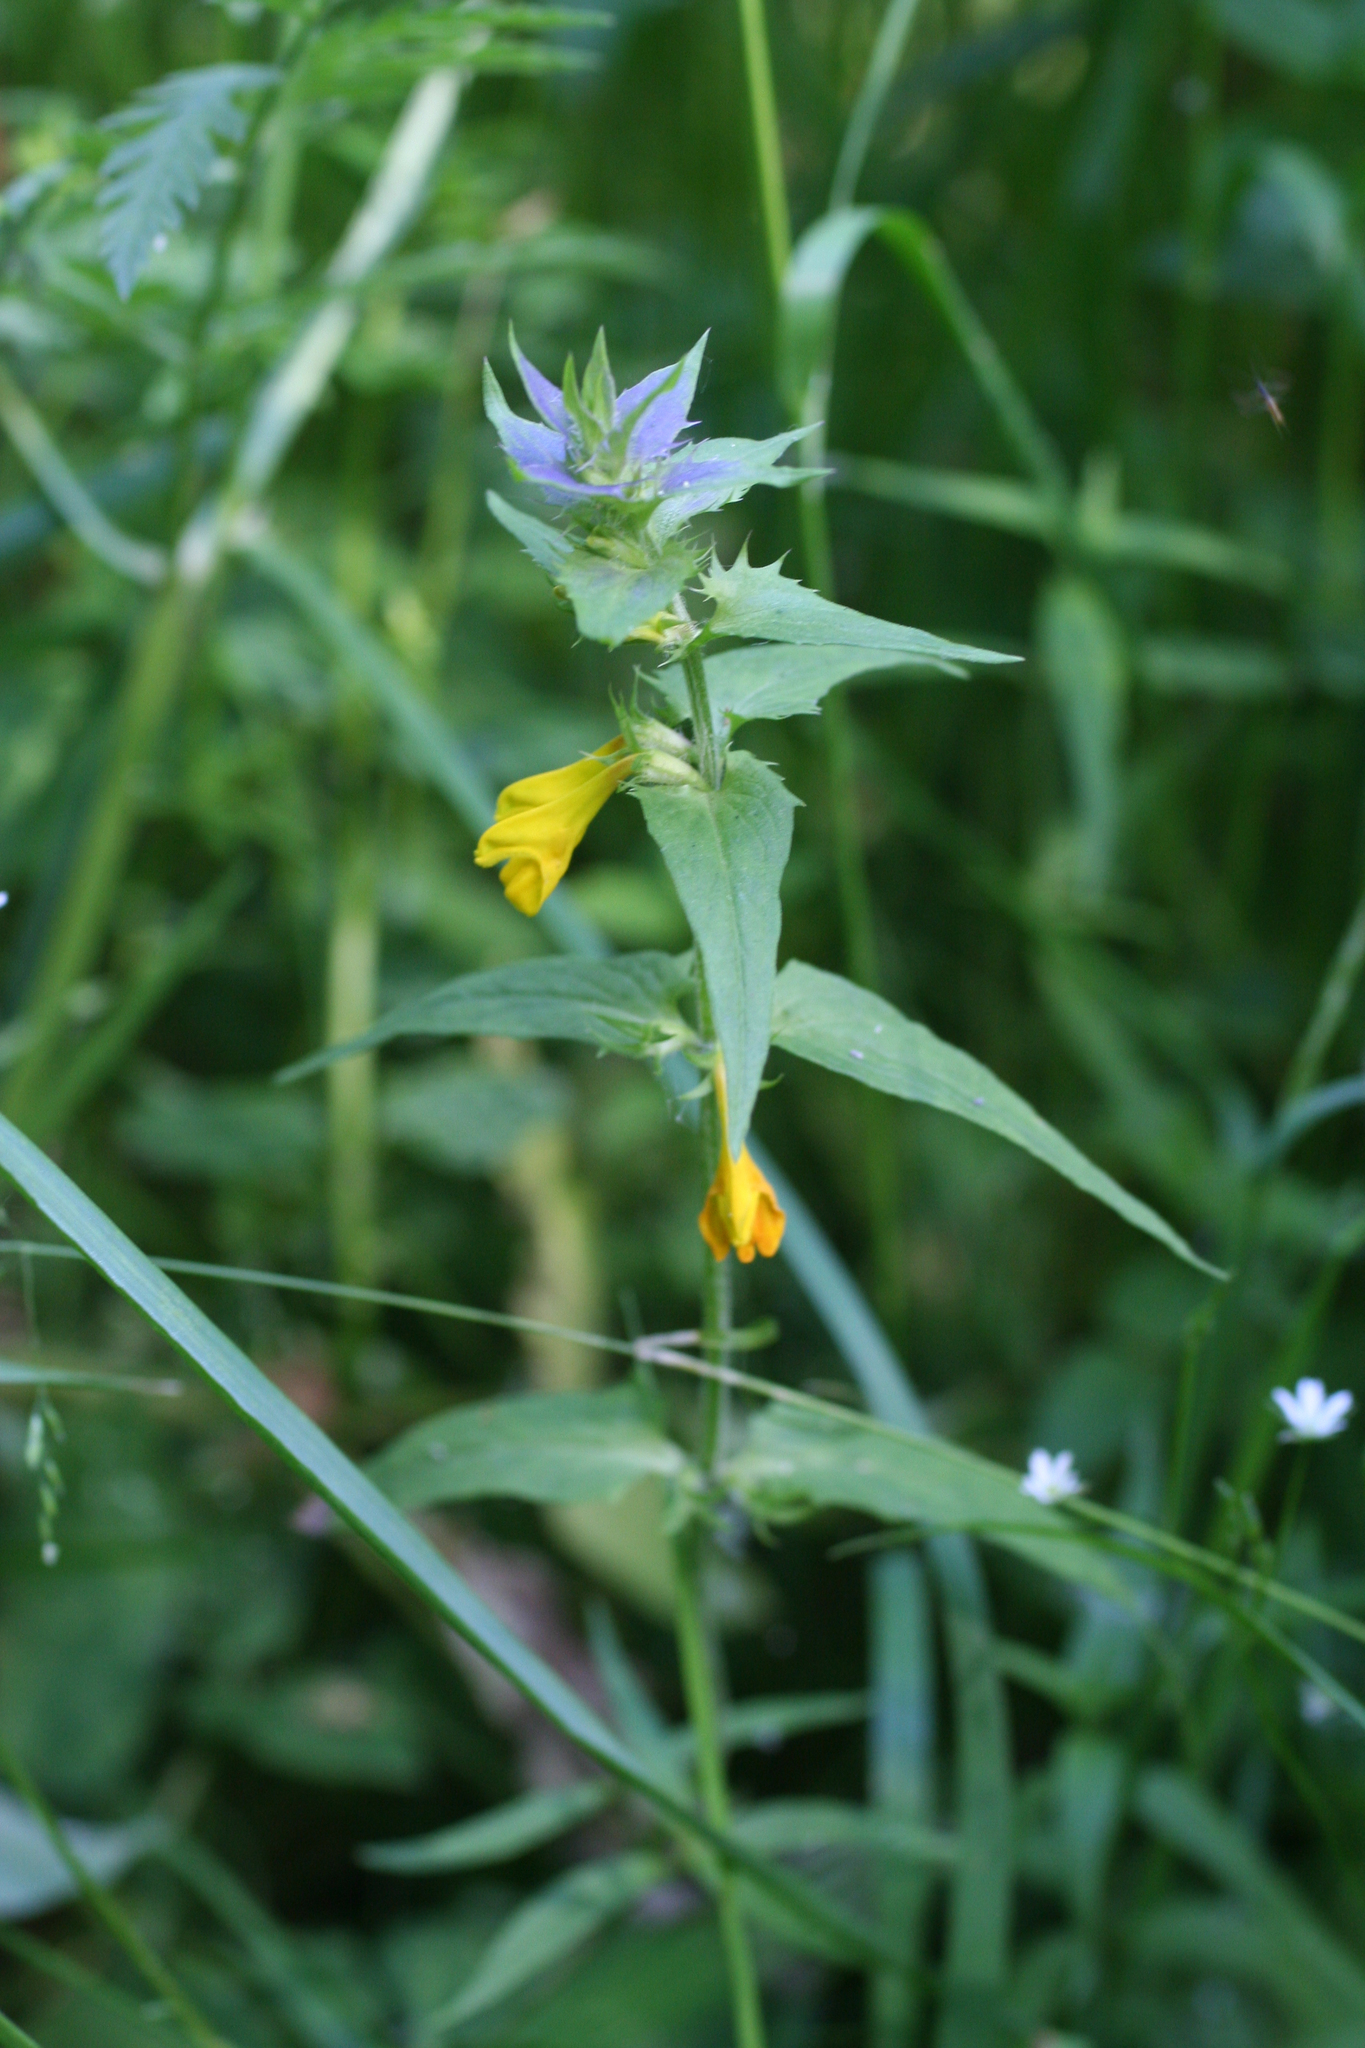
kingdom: Plantae
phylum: Tracheophyta
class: Magnoliopsida
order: Lamiales
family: Orobanchaceae
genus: Melampyrum
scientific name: Melampyrum nemorosum
